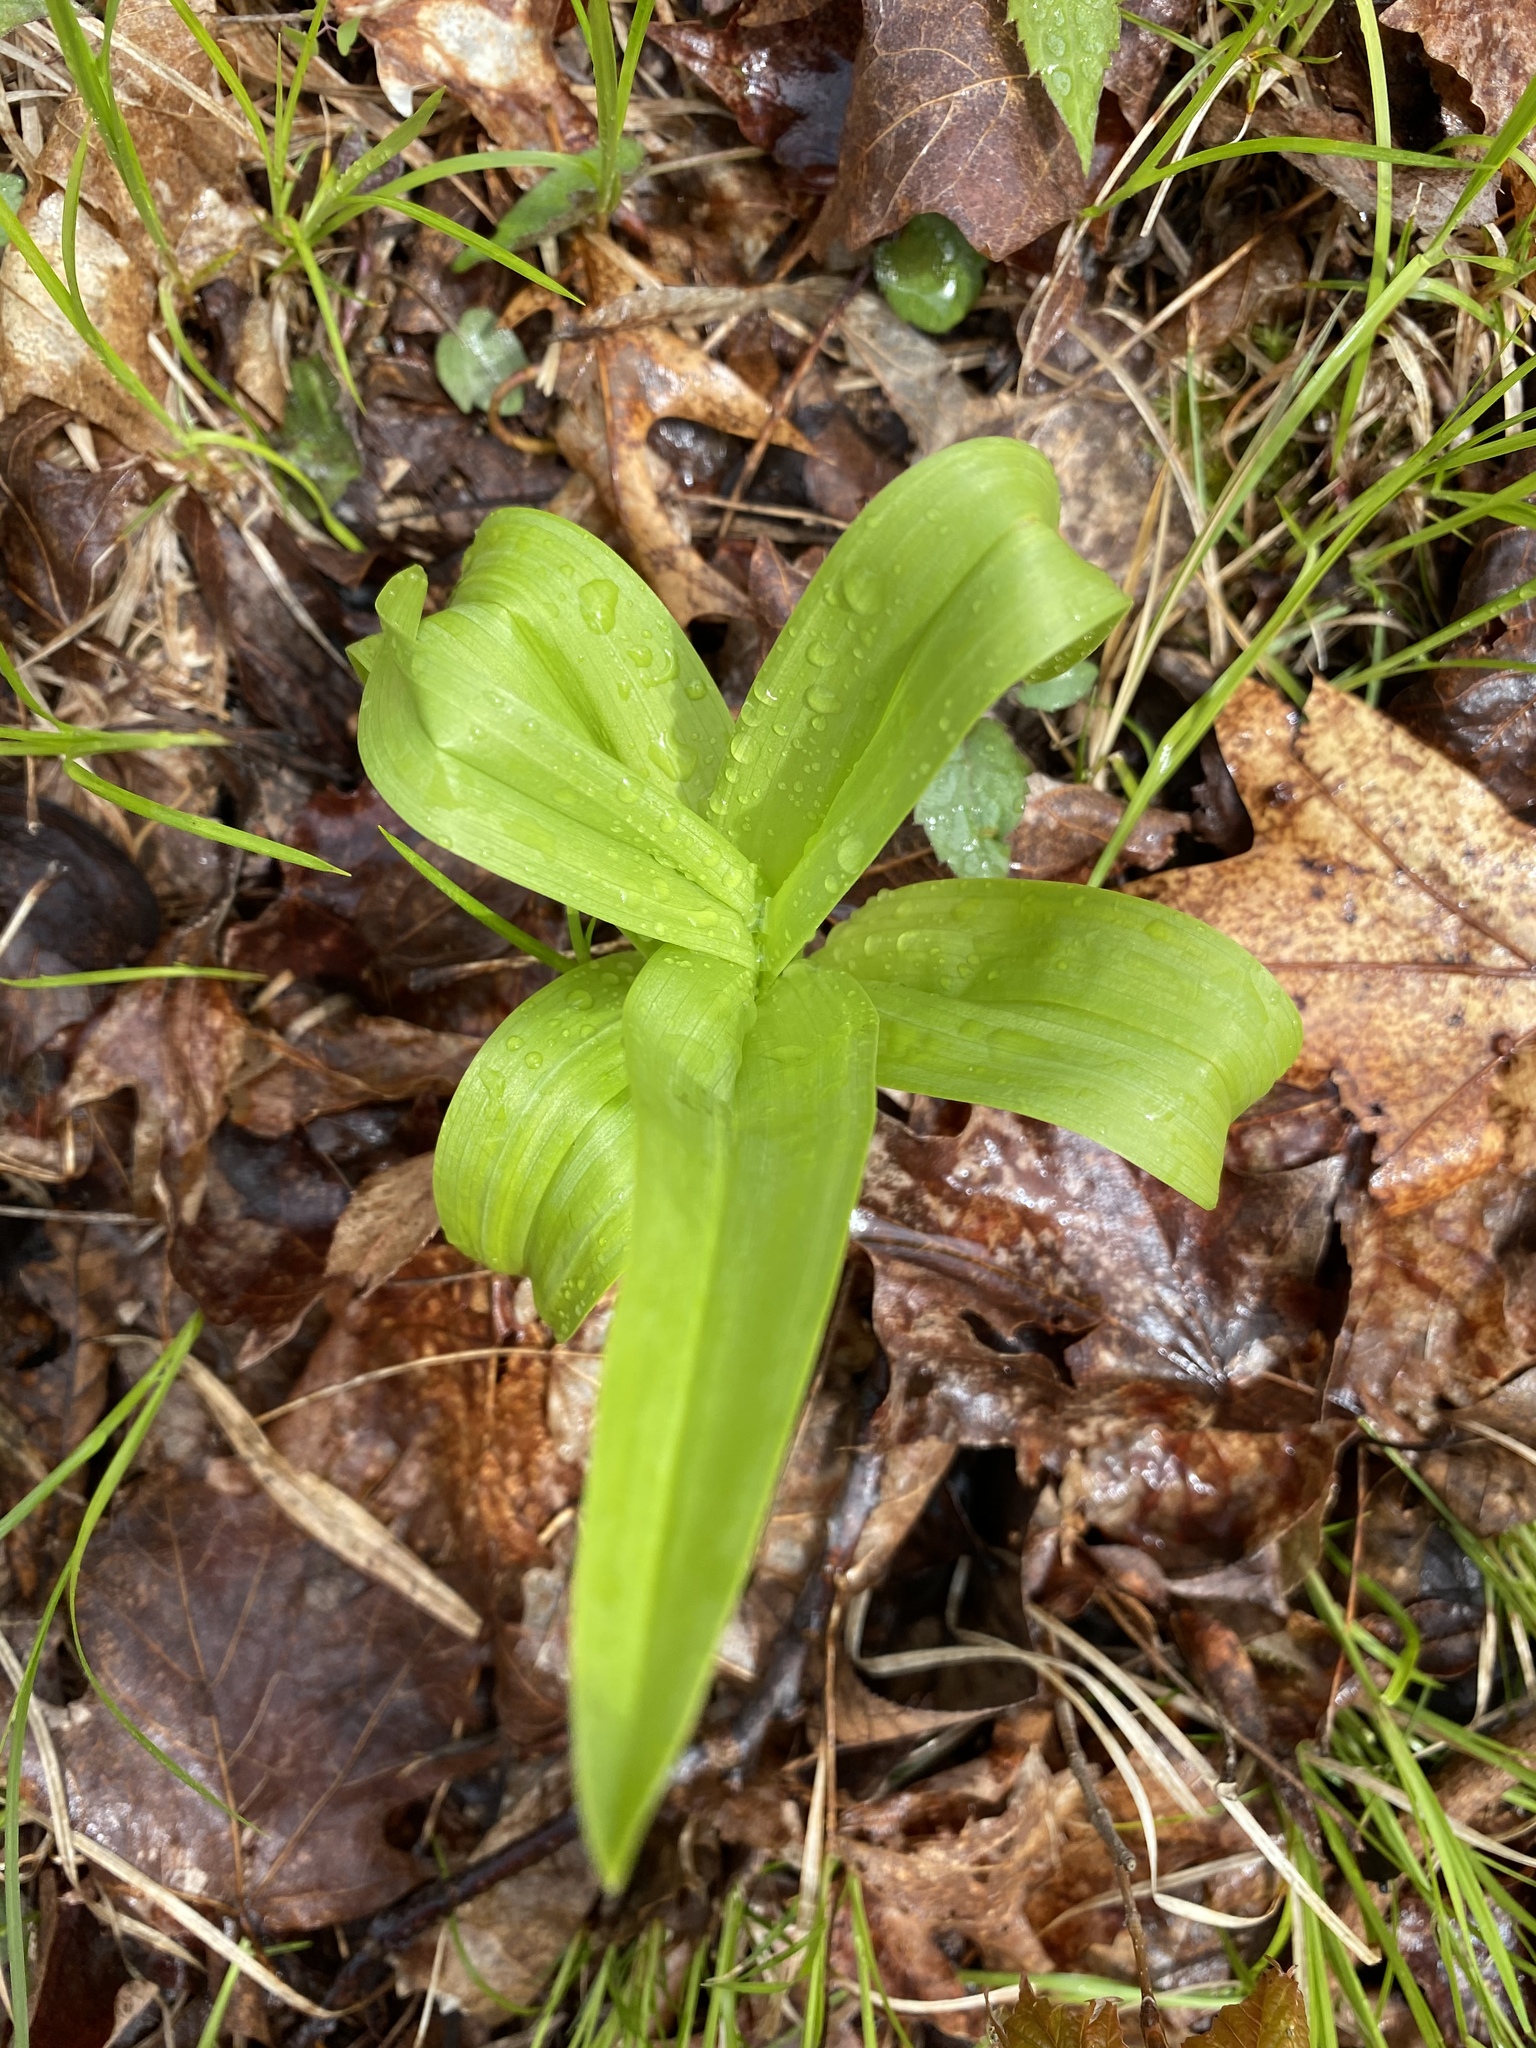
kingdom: Plantae
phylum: Tracheophyta
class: Liliopsida
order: Liliales
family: Melanthiaceae
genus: Veratrum
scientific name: Veratrum hybridum
